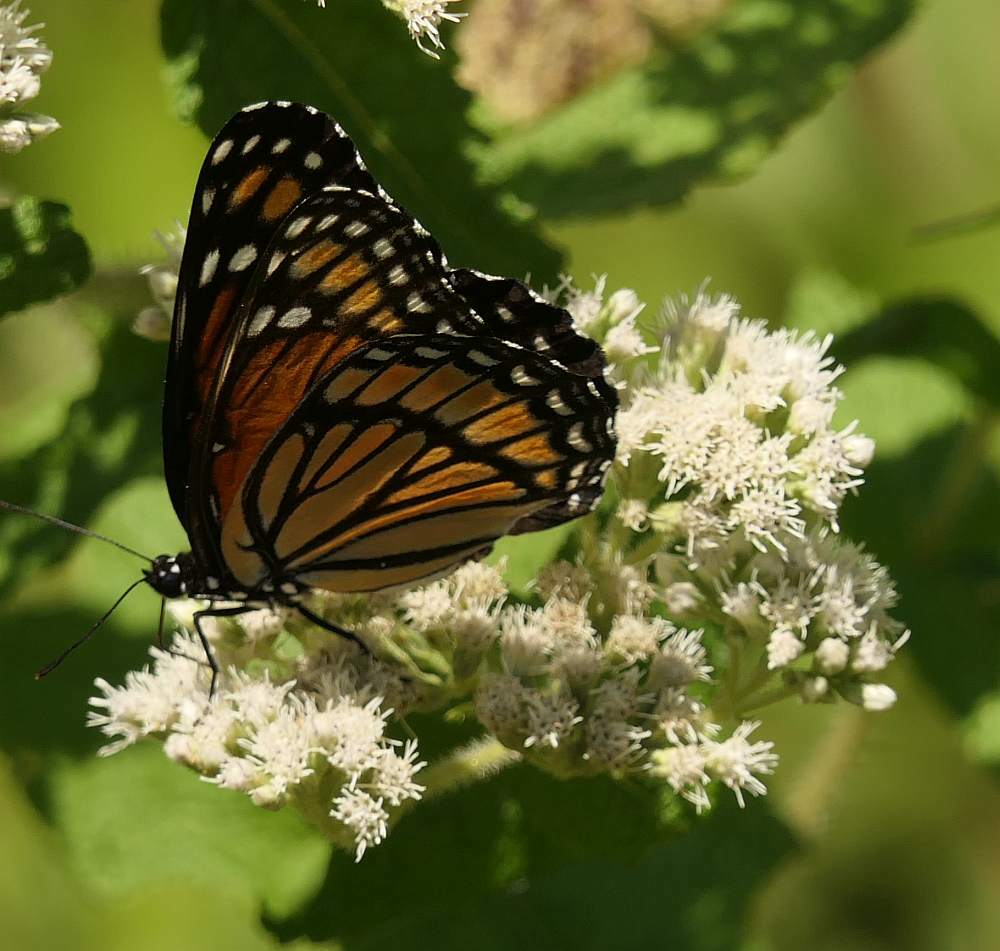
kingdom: Animalia
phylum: Arthropoda
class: Insecta
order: Lepidoptera
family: Nymphalidae
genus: Limenitis
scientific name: Limenitis archippus
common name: Viceroy
